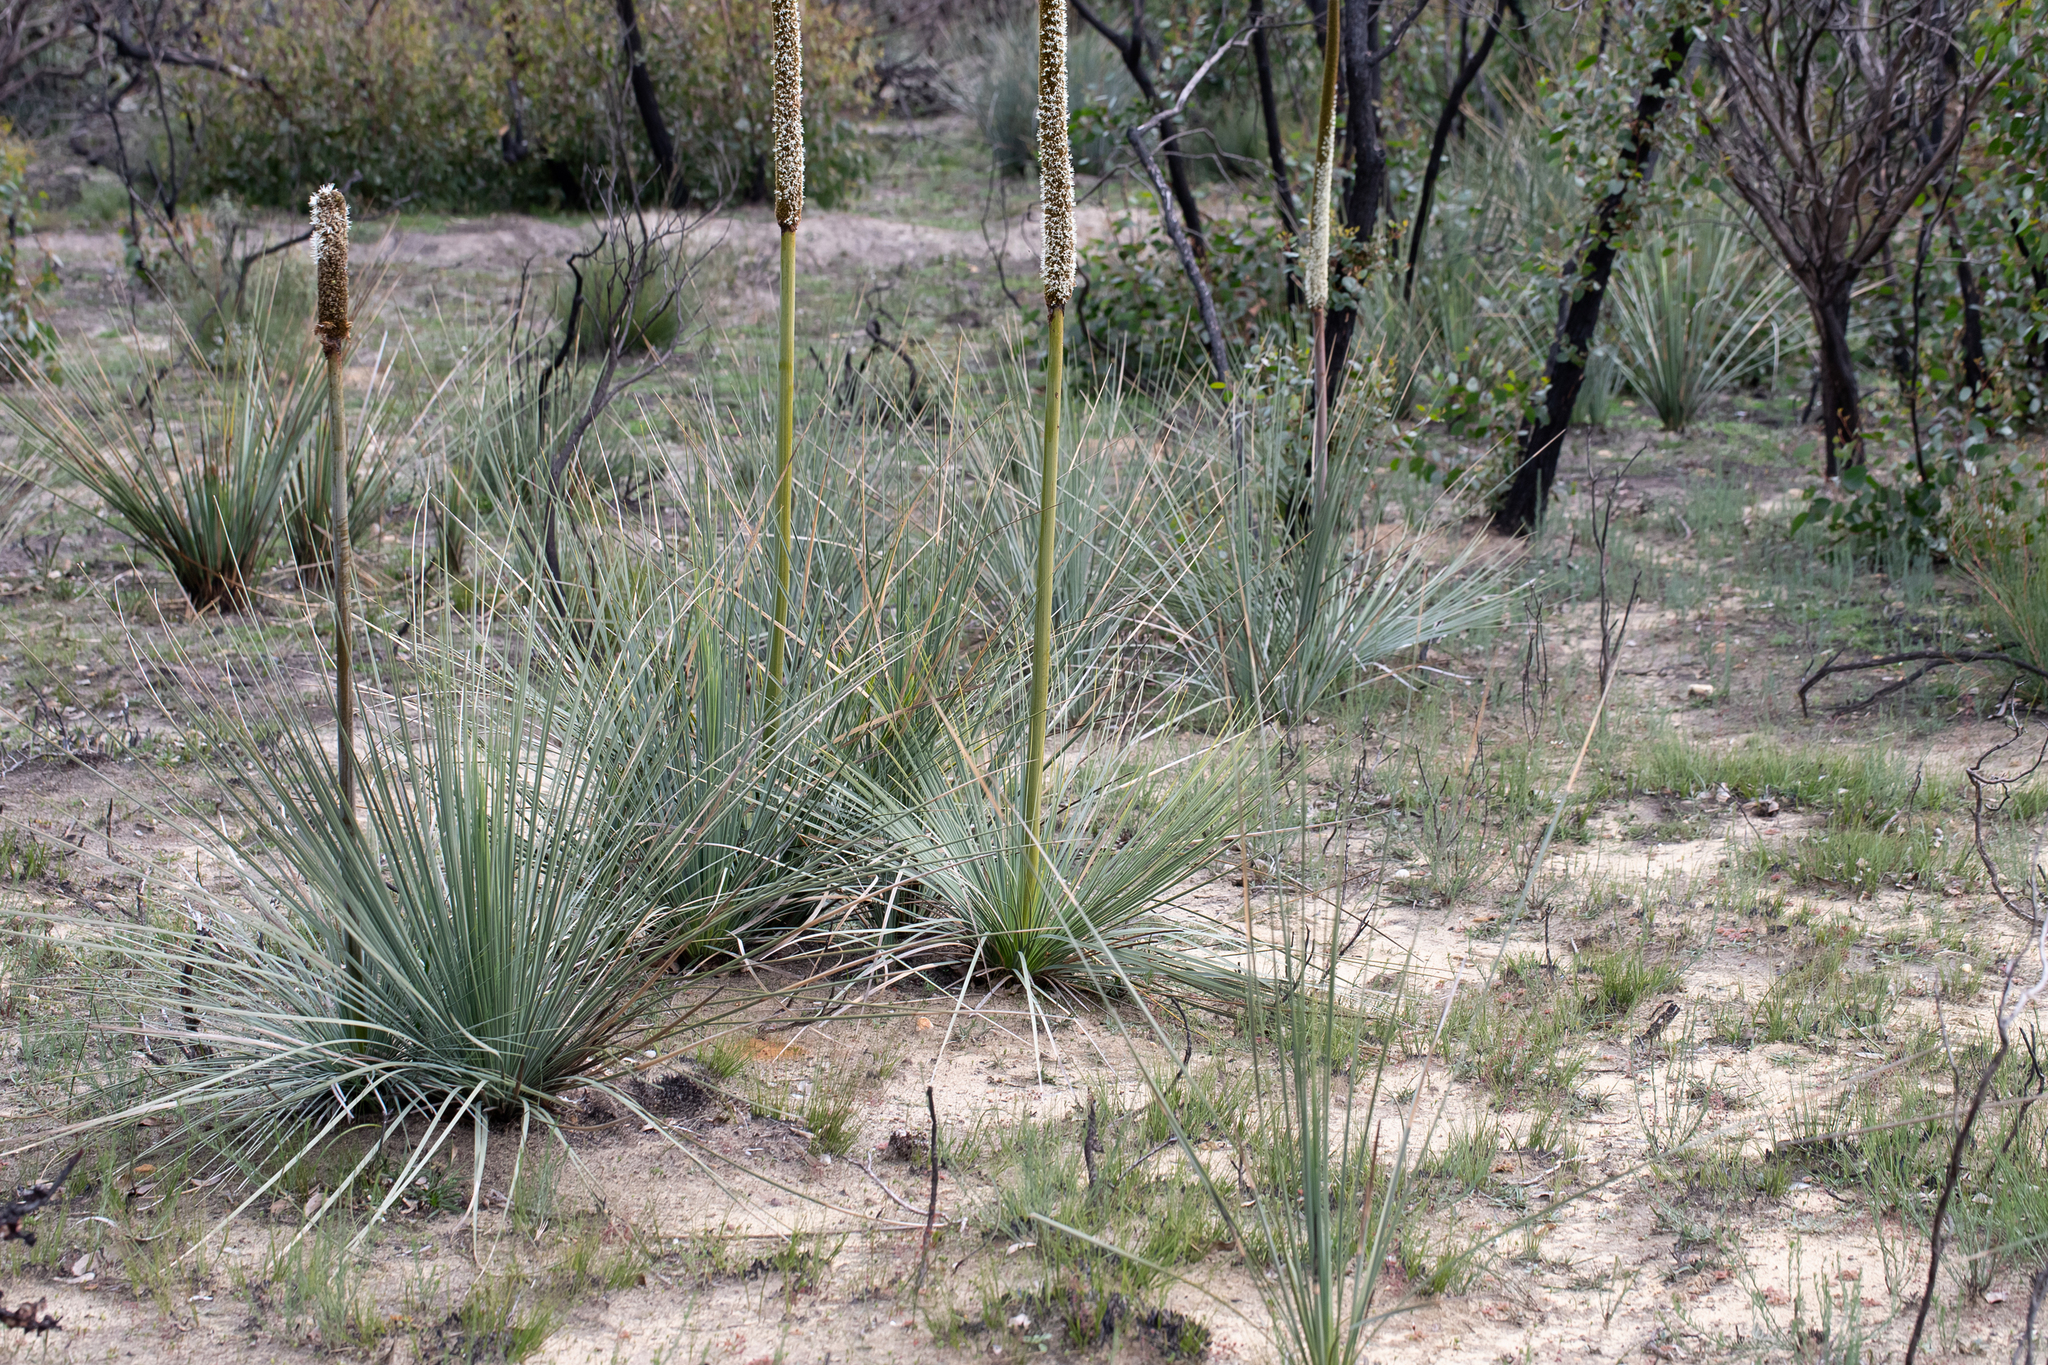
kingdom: Plantae
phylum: Tracheophyta
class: Liliopsida
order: Asparagales
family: Asphodelaceae
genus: Xanthorrhoea
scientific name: Xanthorrhoea semiplana
